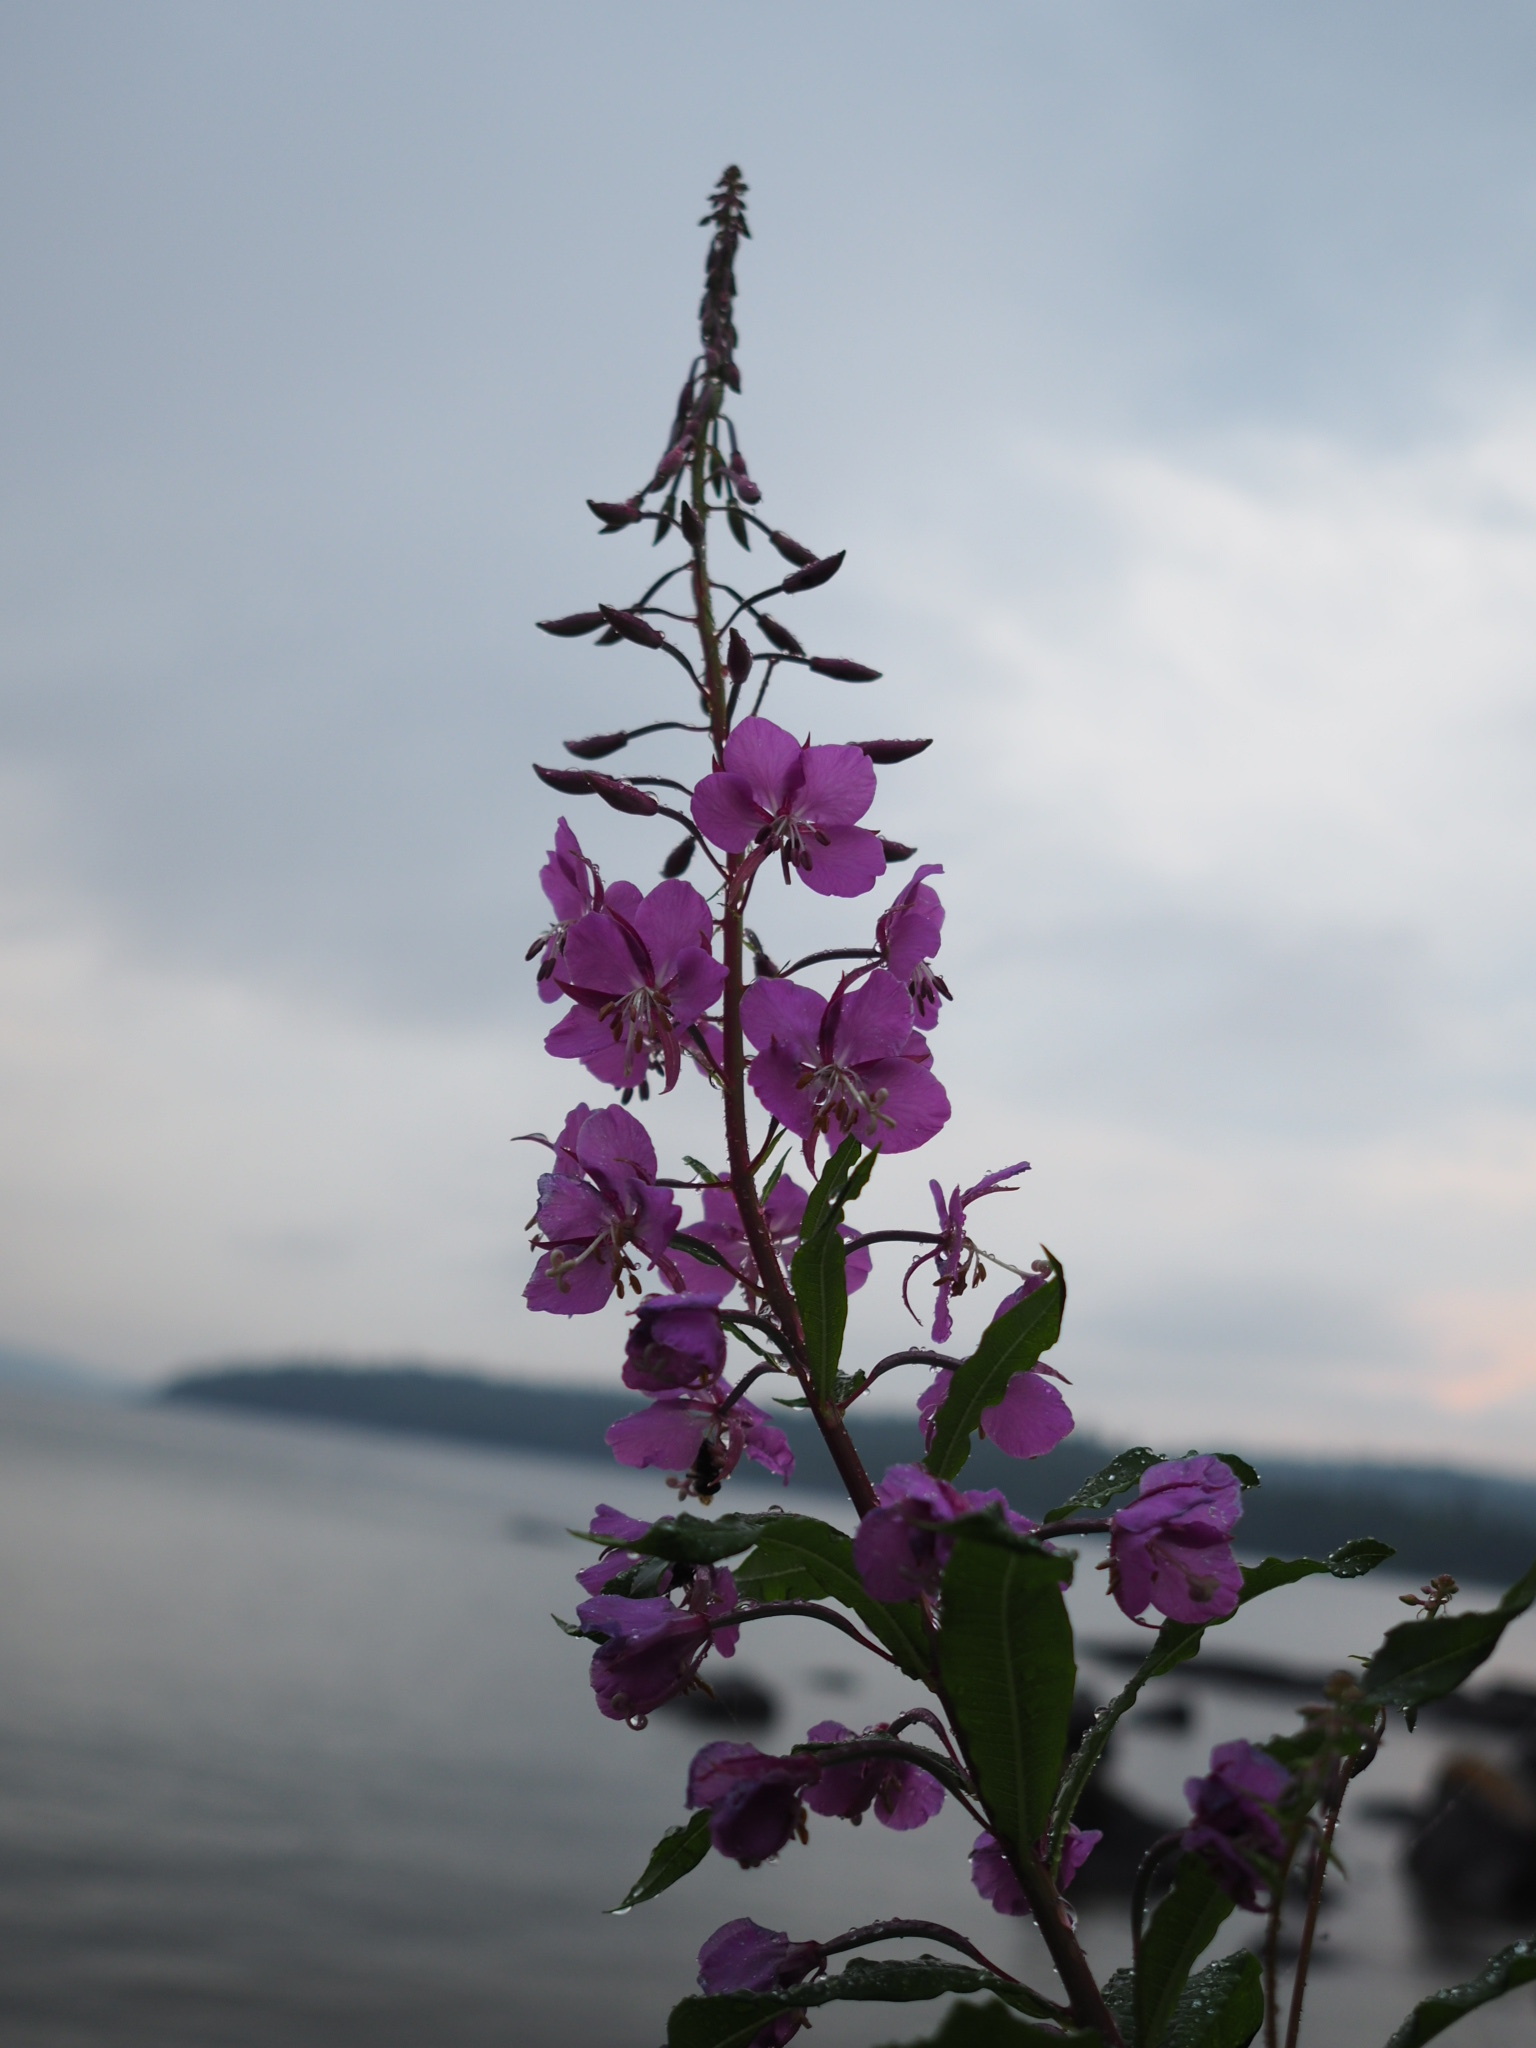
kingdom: Plantae
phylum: Tracheophyta
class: Magnoliopsida
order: Myrtales
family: Onagraceae
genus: Chamaenerion
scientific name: Chamaenerion angustifolium
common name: Fireweed
